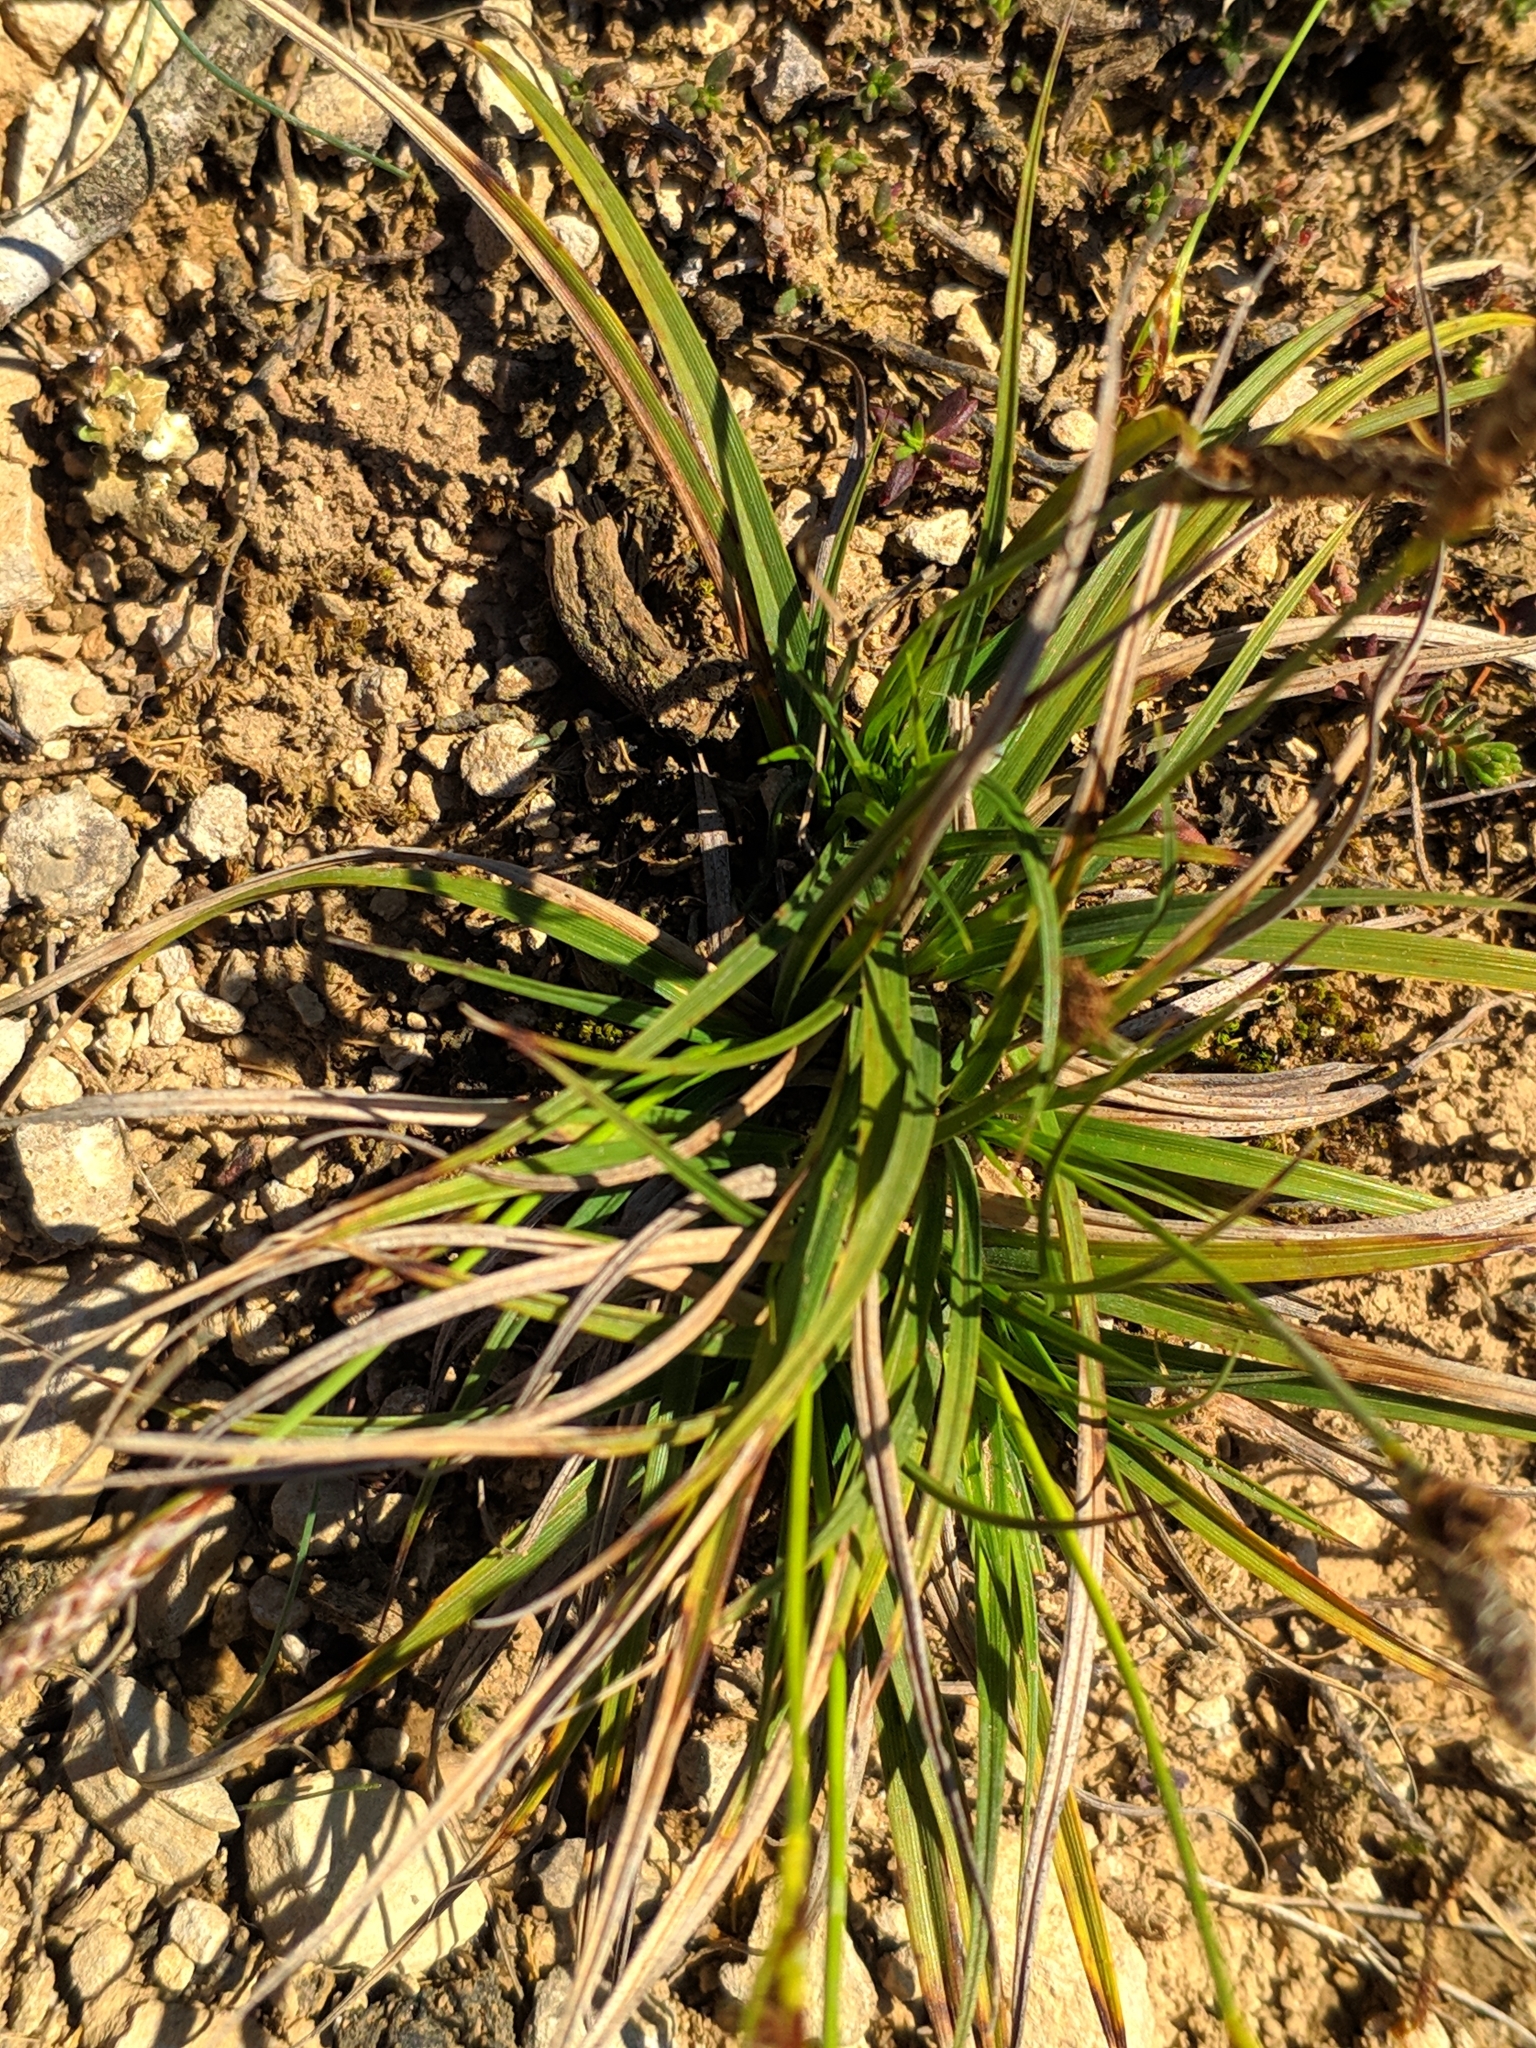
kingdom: Plantae
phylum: Tracheophyta
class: Liliopsida
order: Poales
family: Cyperaceae
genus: Carex
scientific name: Carex halleriana
